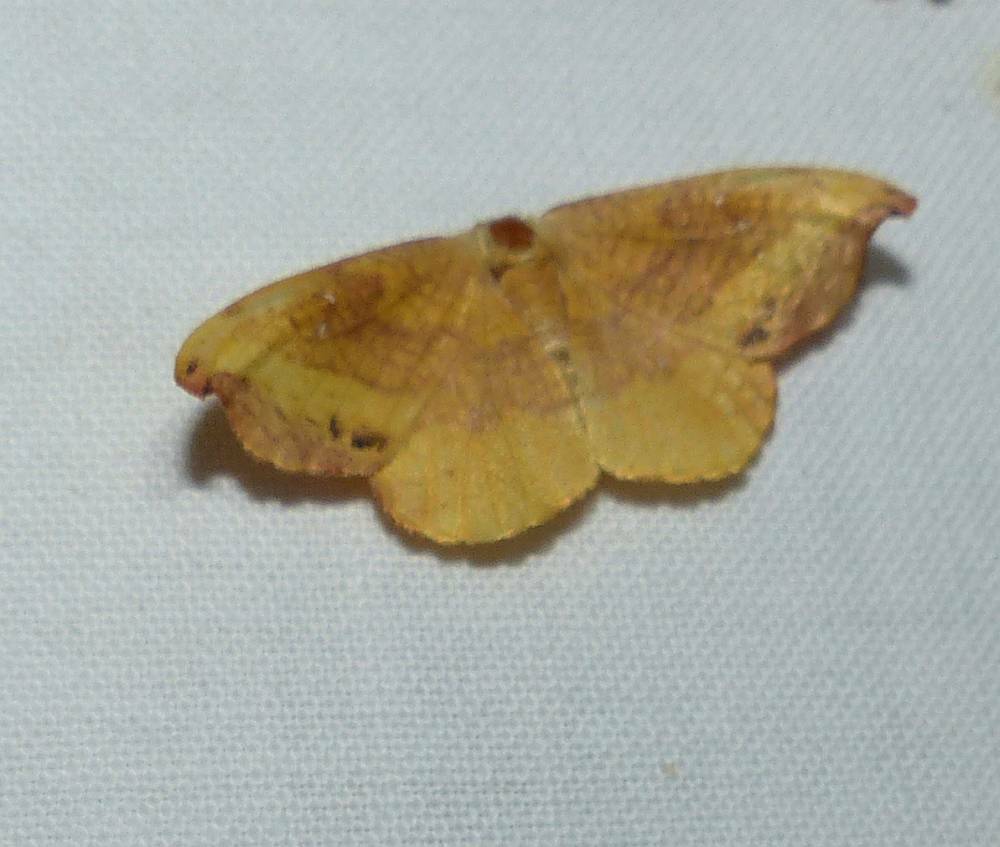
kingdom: Animalia
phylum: Arthropoda
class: Insecta
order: Lepidoptera
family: Drepanidae
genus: Oreta
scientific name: Oreta rosea
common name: Rose hooktip
